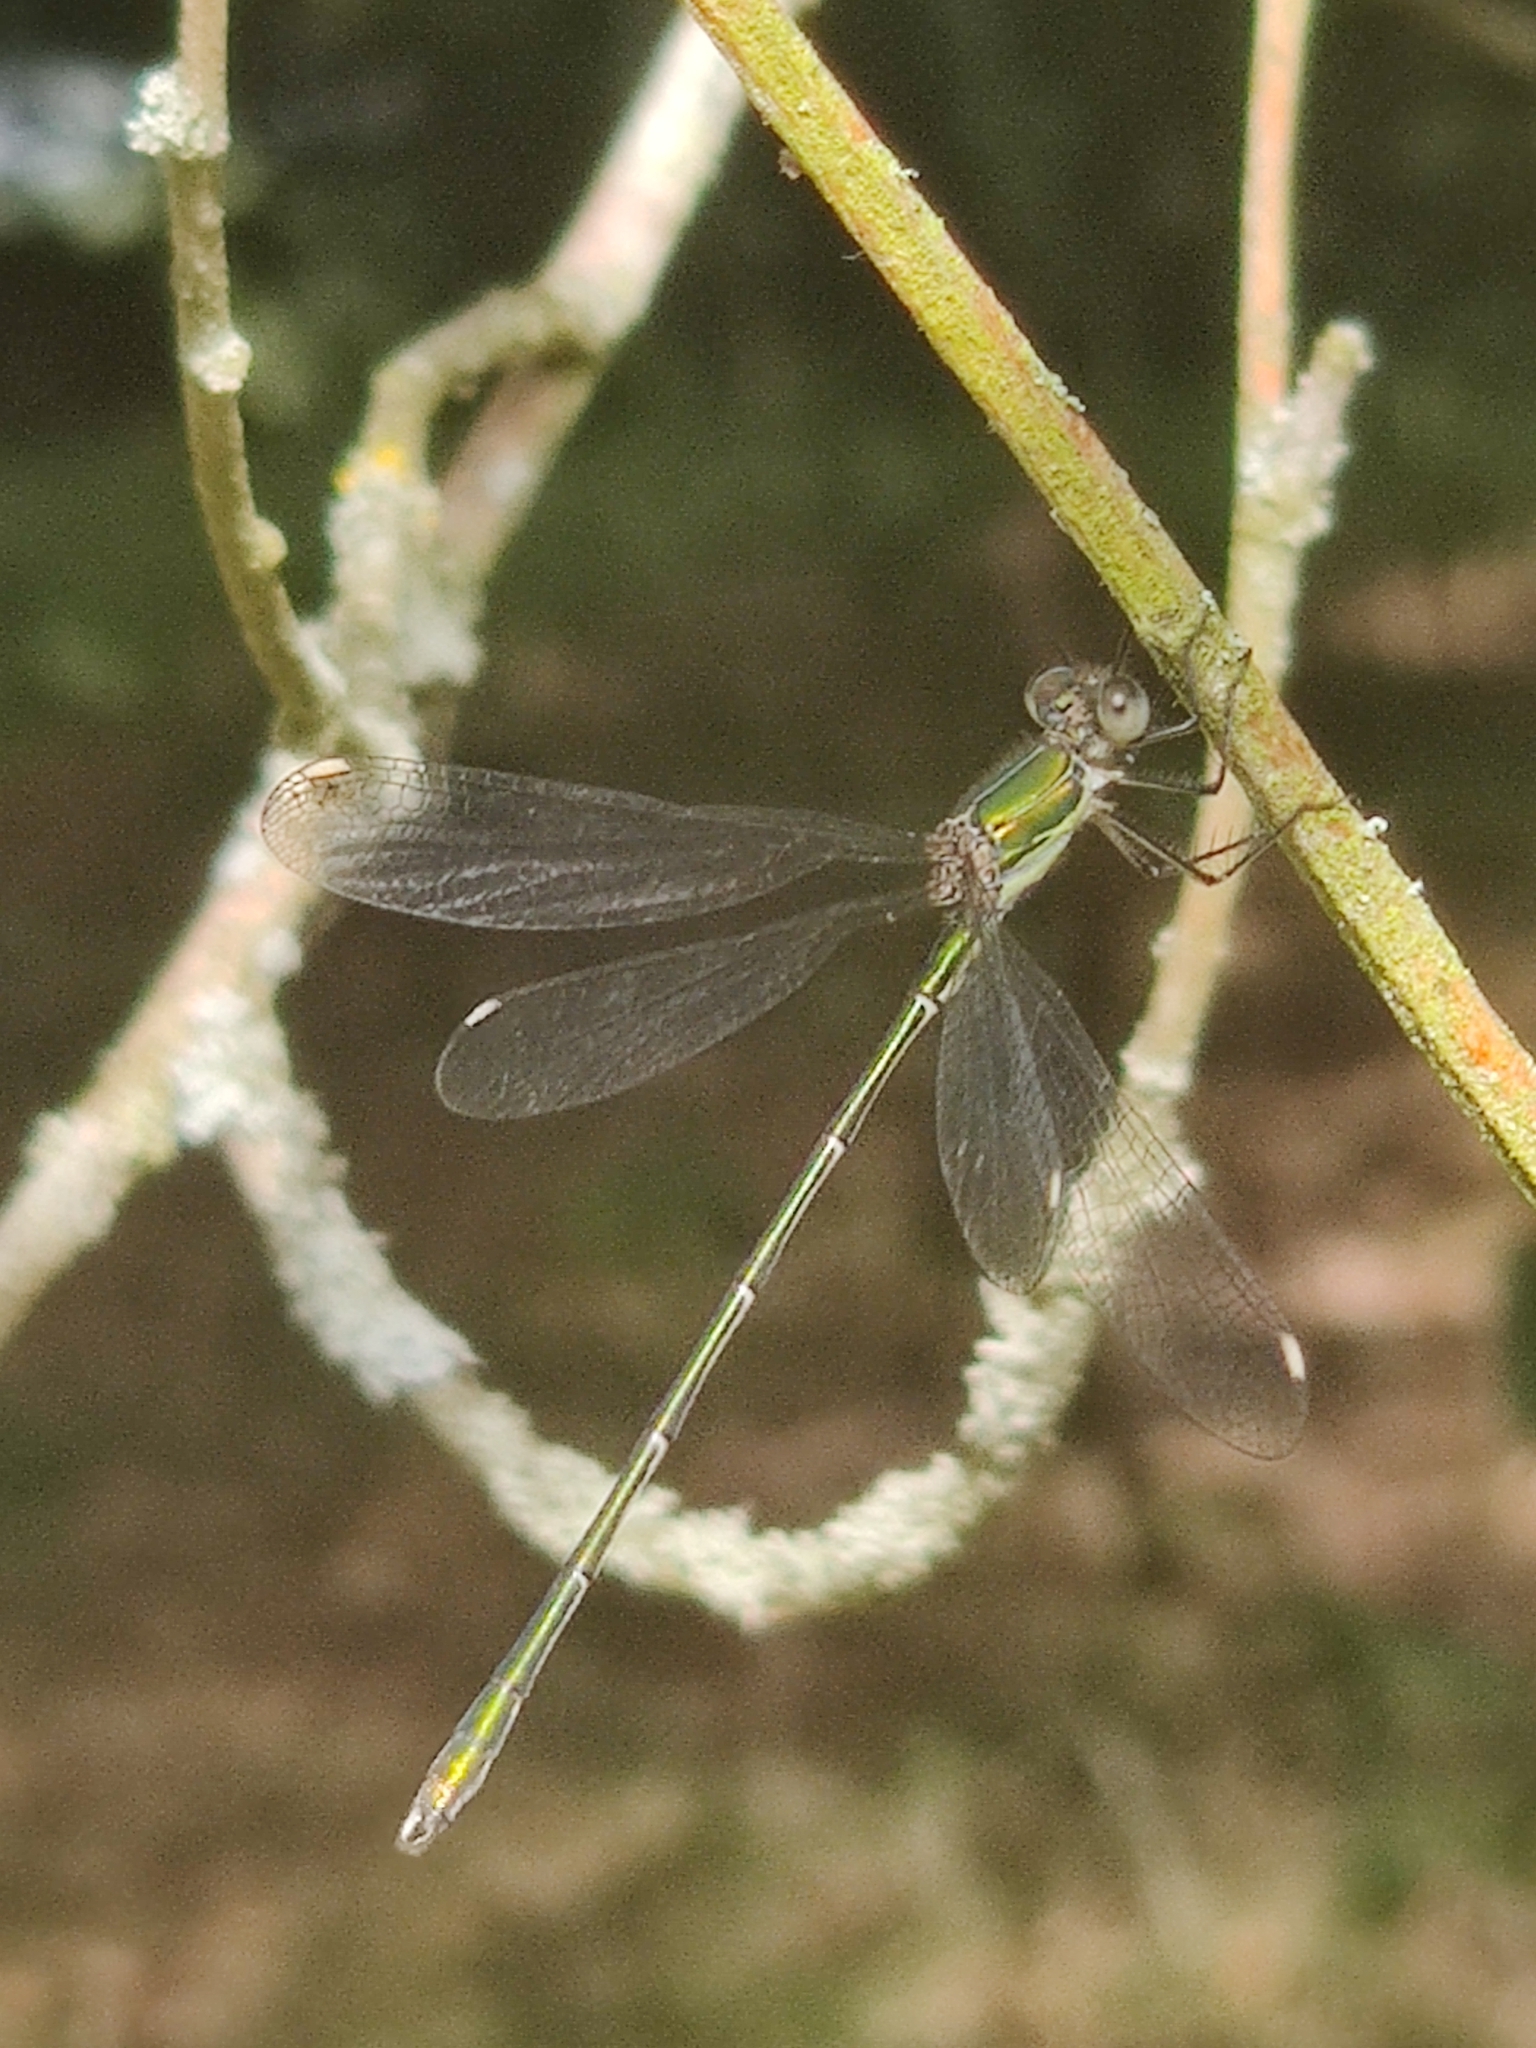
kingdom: Animalia
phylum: Arthropoda
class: Insecta
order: Odonata
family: Lestidae
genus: Chalcolestes
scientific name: Chalcolestes viridis
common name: Green emerald damselfly
